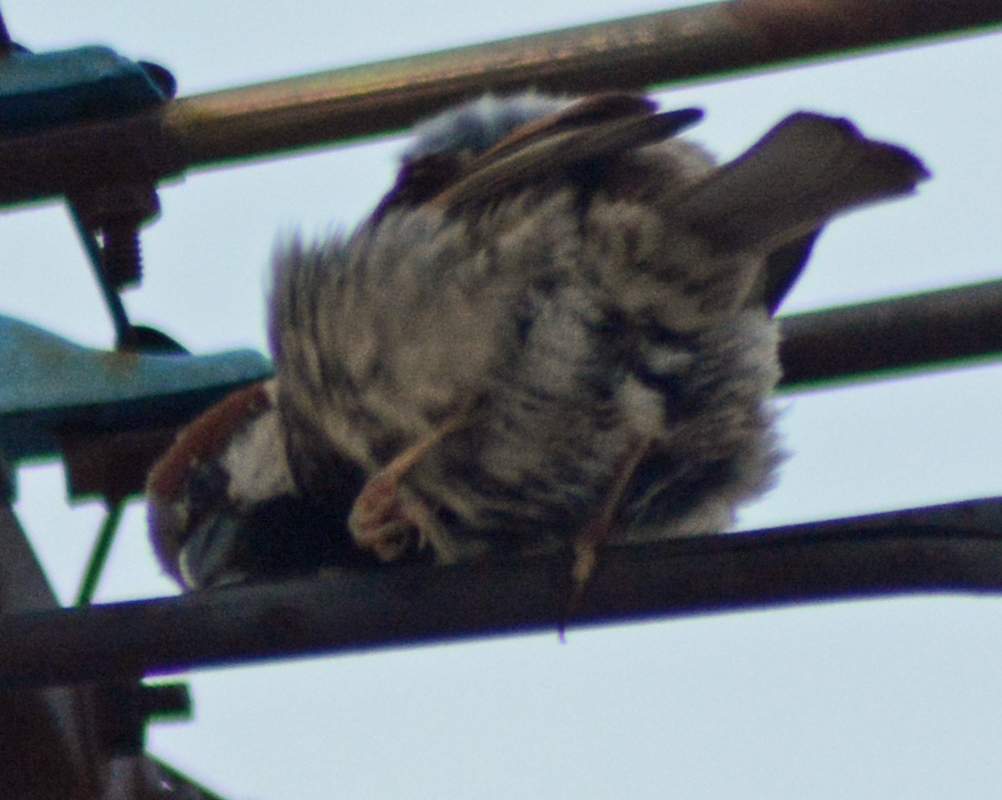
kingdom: Animalia
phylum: Chordata
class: Aves
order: Passeriformes
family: Passeridae
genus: Passer
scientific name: Passer domesticus
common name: House sparrow
